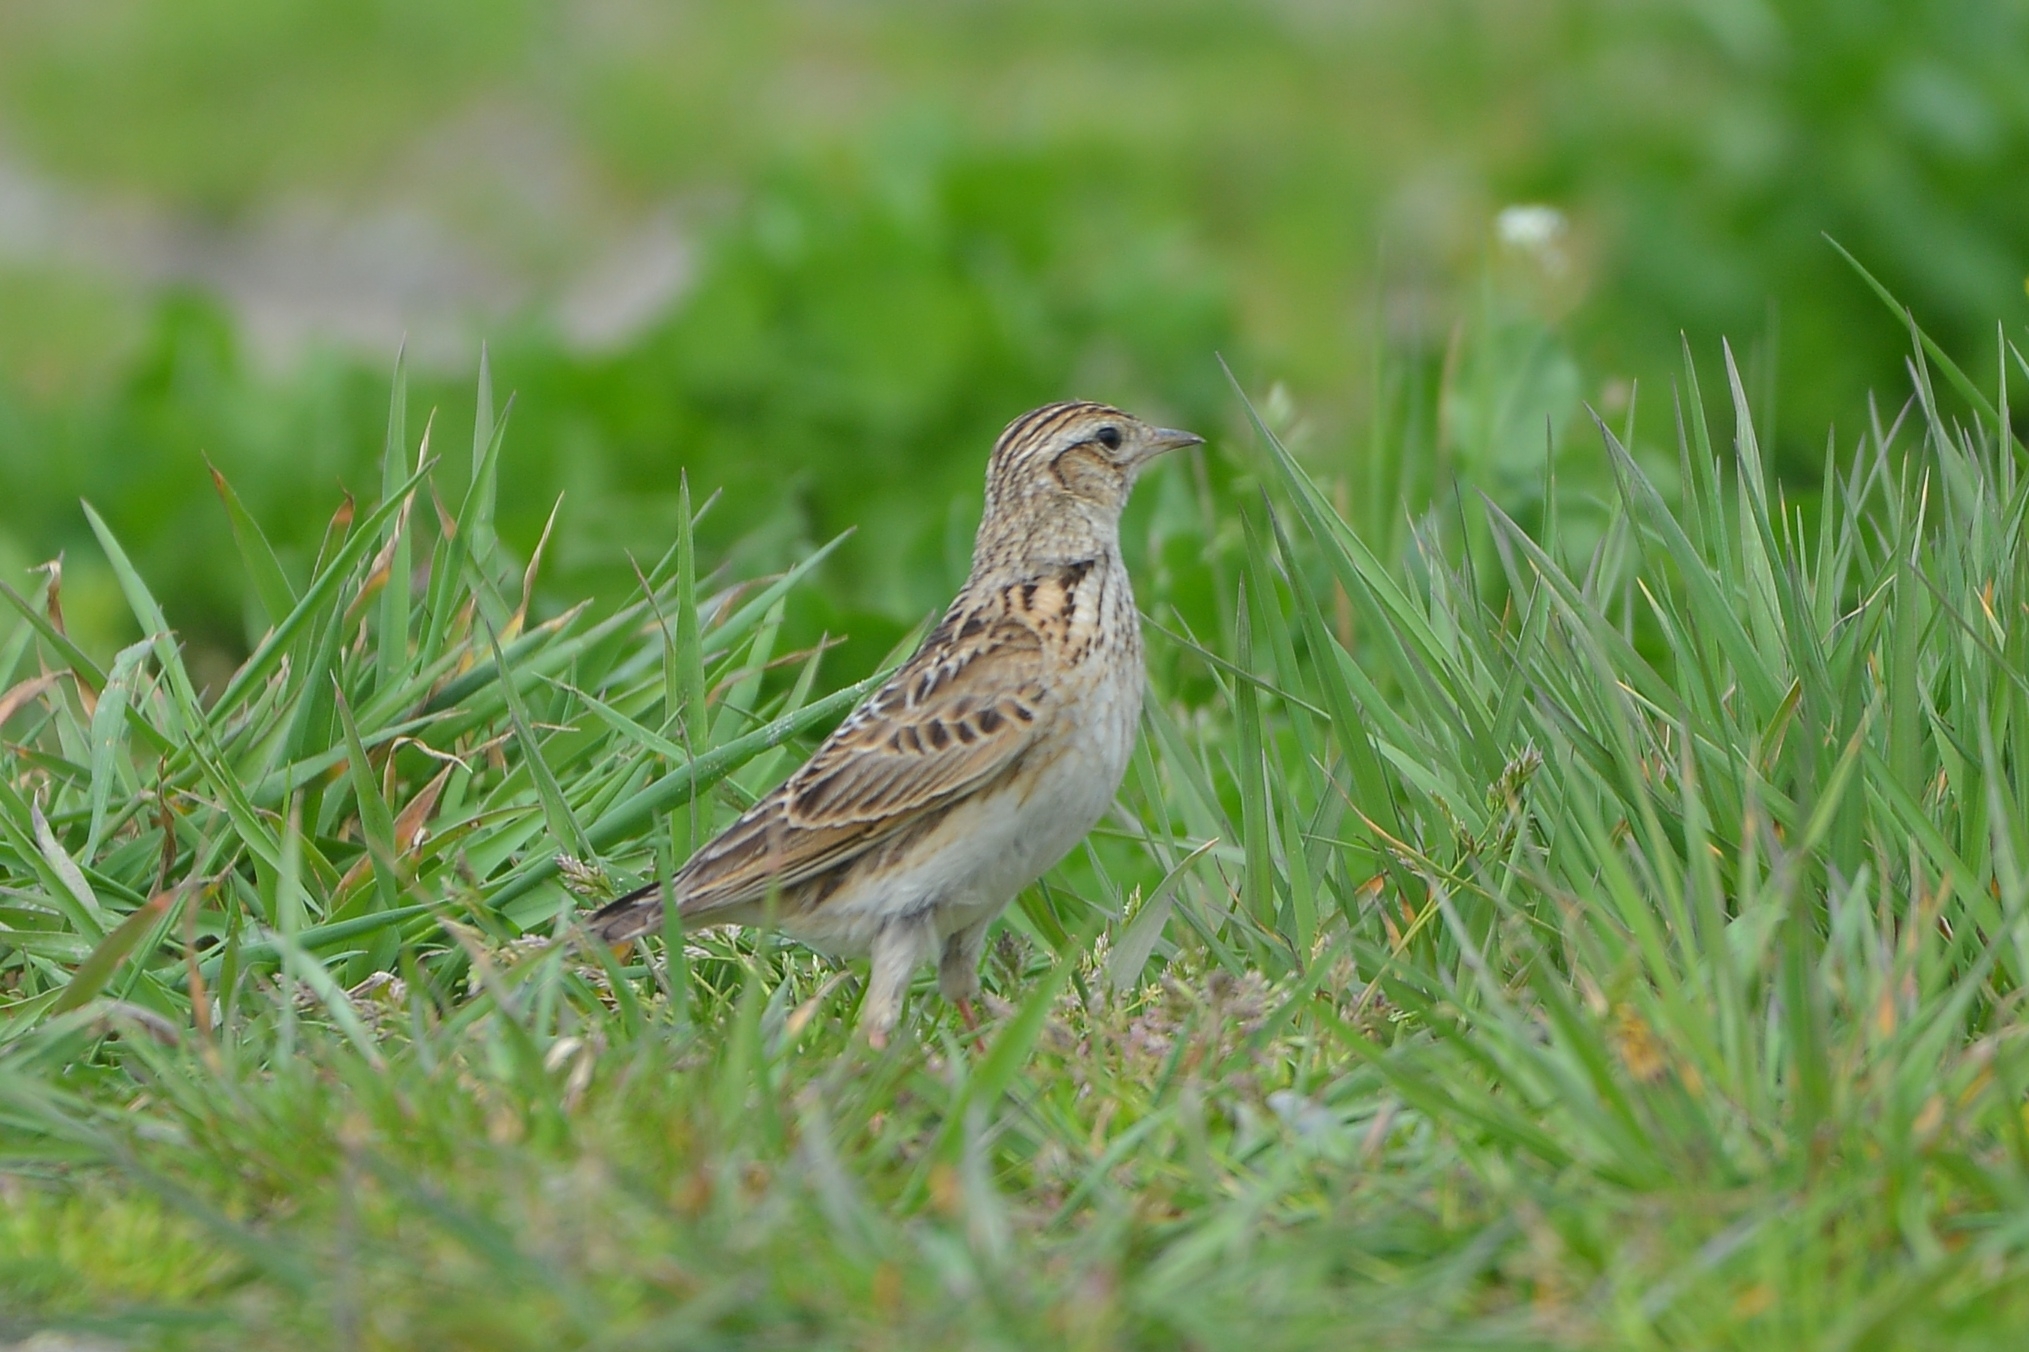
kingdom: Animalia
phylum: Chordata
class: Aves
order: Passeriformes
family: Alaudidae
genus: Alauda
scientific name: Alauda arvensis
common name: Eurasian skylark
